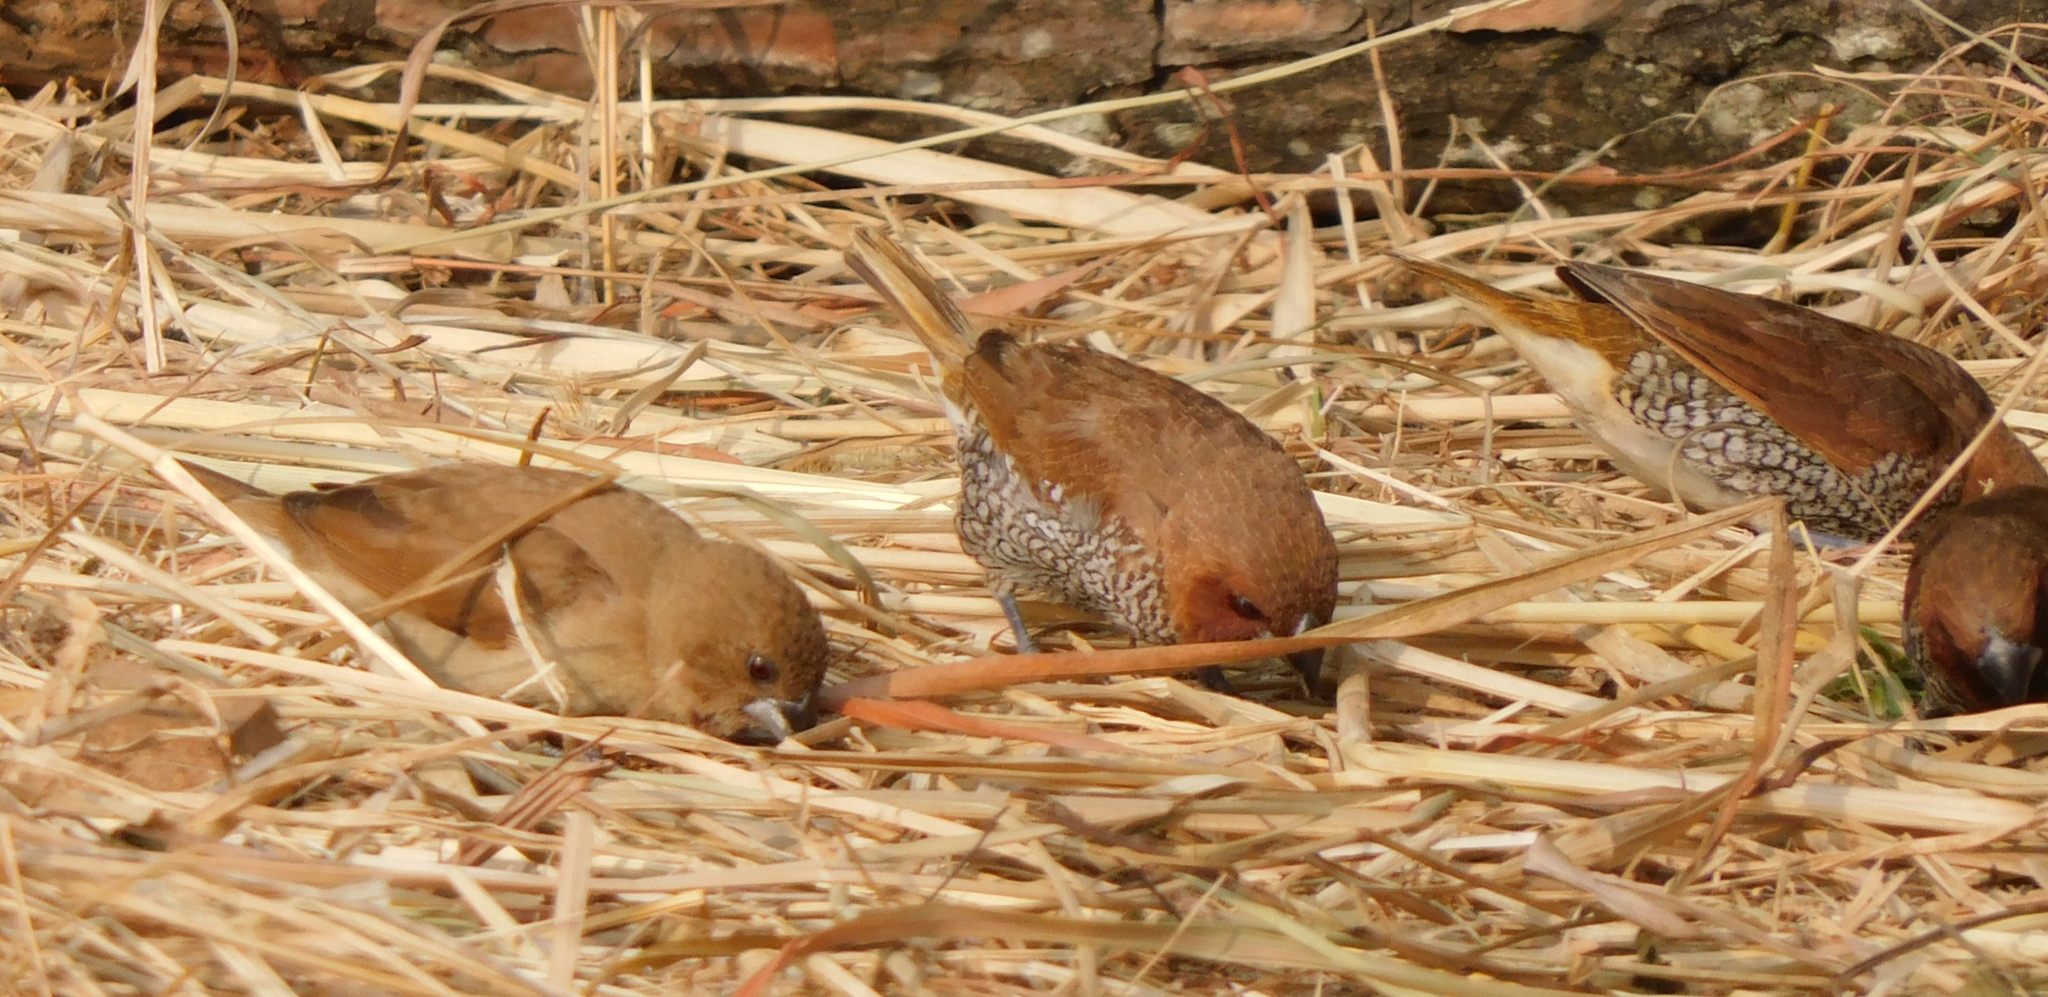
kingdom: Animalia
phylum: Chordata
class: Aves
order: Passeriformes
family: Estrildidae
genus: Lonchura
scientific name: Lonchura punctulata
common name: Scaly-breasted munia
